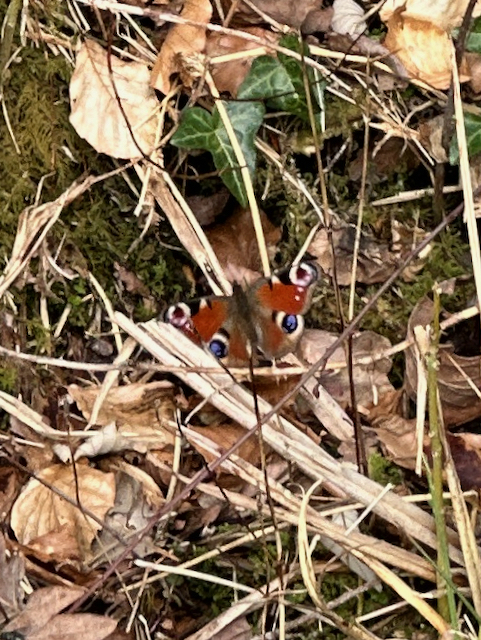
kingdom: Animalia
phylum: Arthropoda
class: Insecta
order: Lepidoptera
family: Nymphalidae
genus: Aglais
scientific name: Aglais io
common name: Peacock
